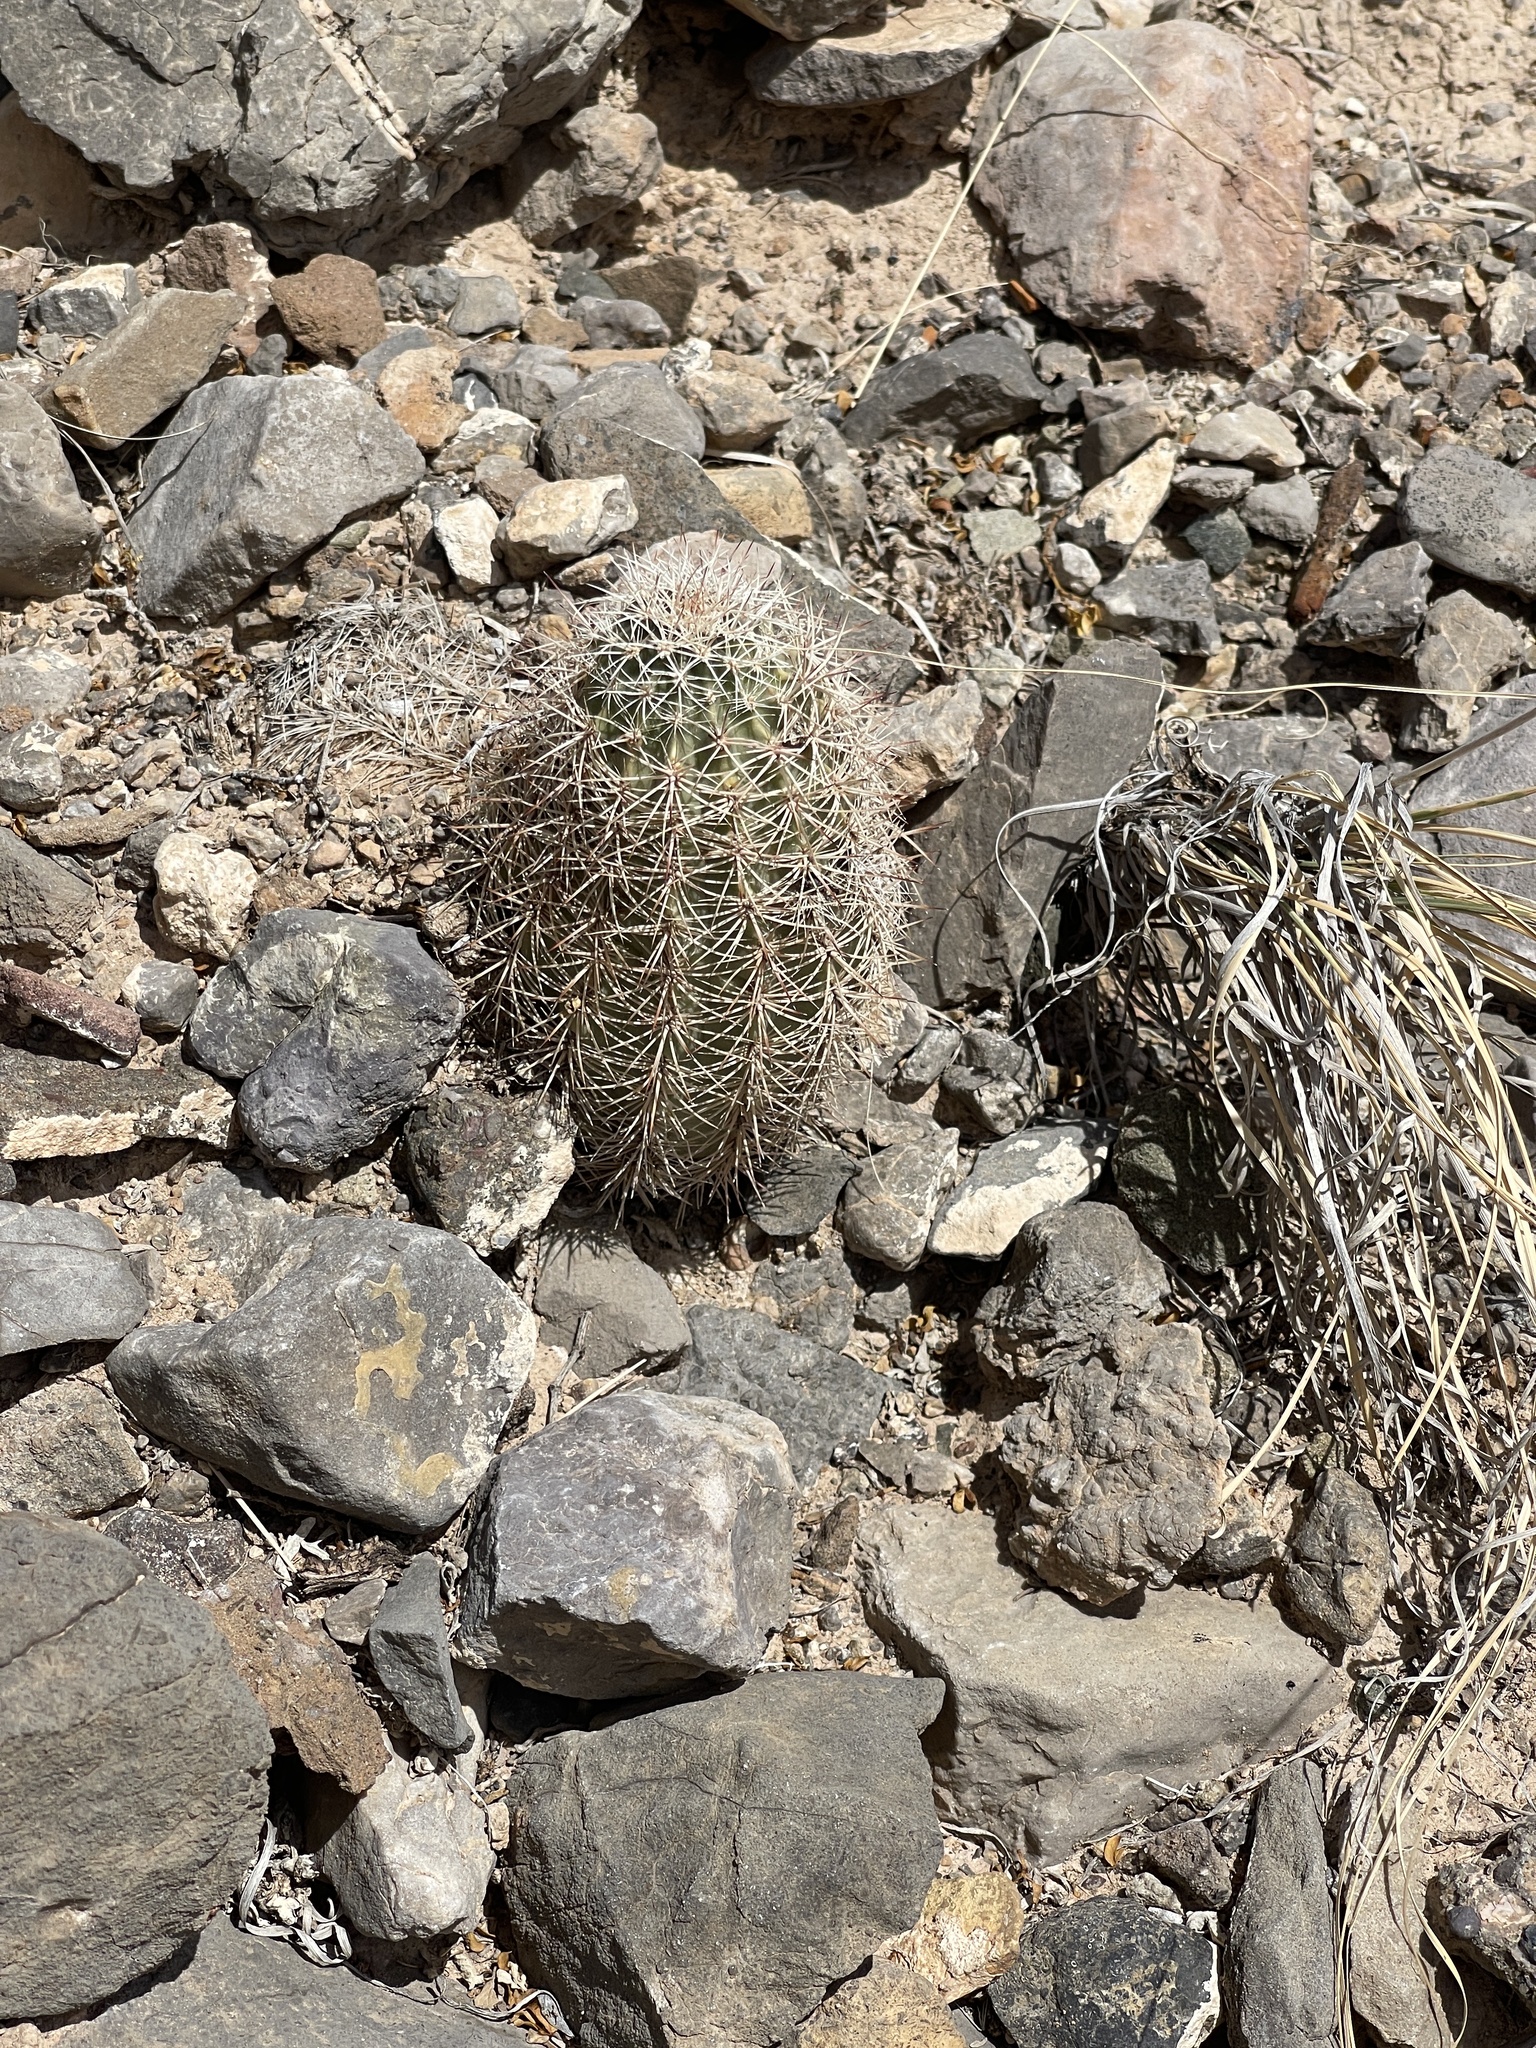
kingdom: Plantae
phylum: Tracheophyta
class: Magnoliopsida
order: Caryophyllales
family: Cactaceae
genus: Echinocereus
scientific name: Echinocereus roetteri
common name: Lloyd's hedgehog cactus
